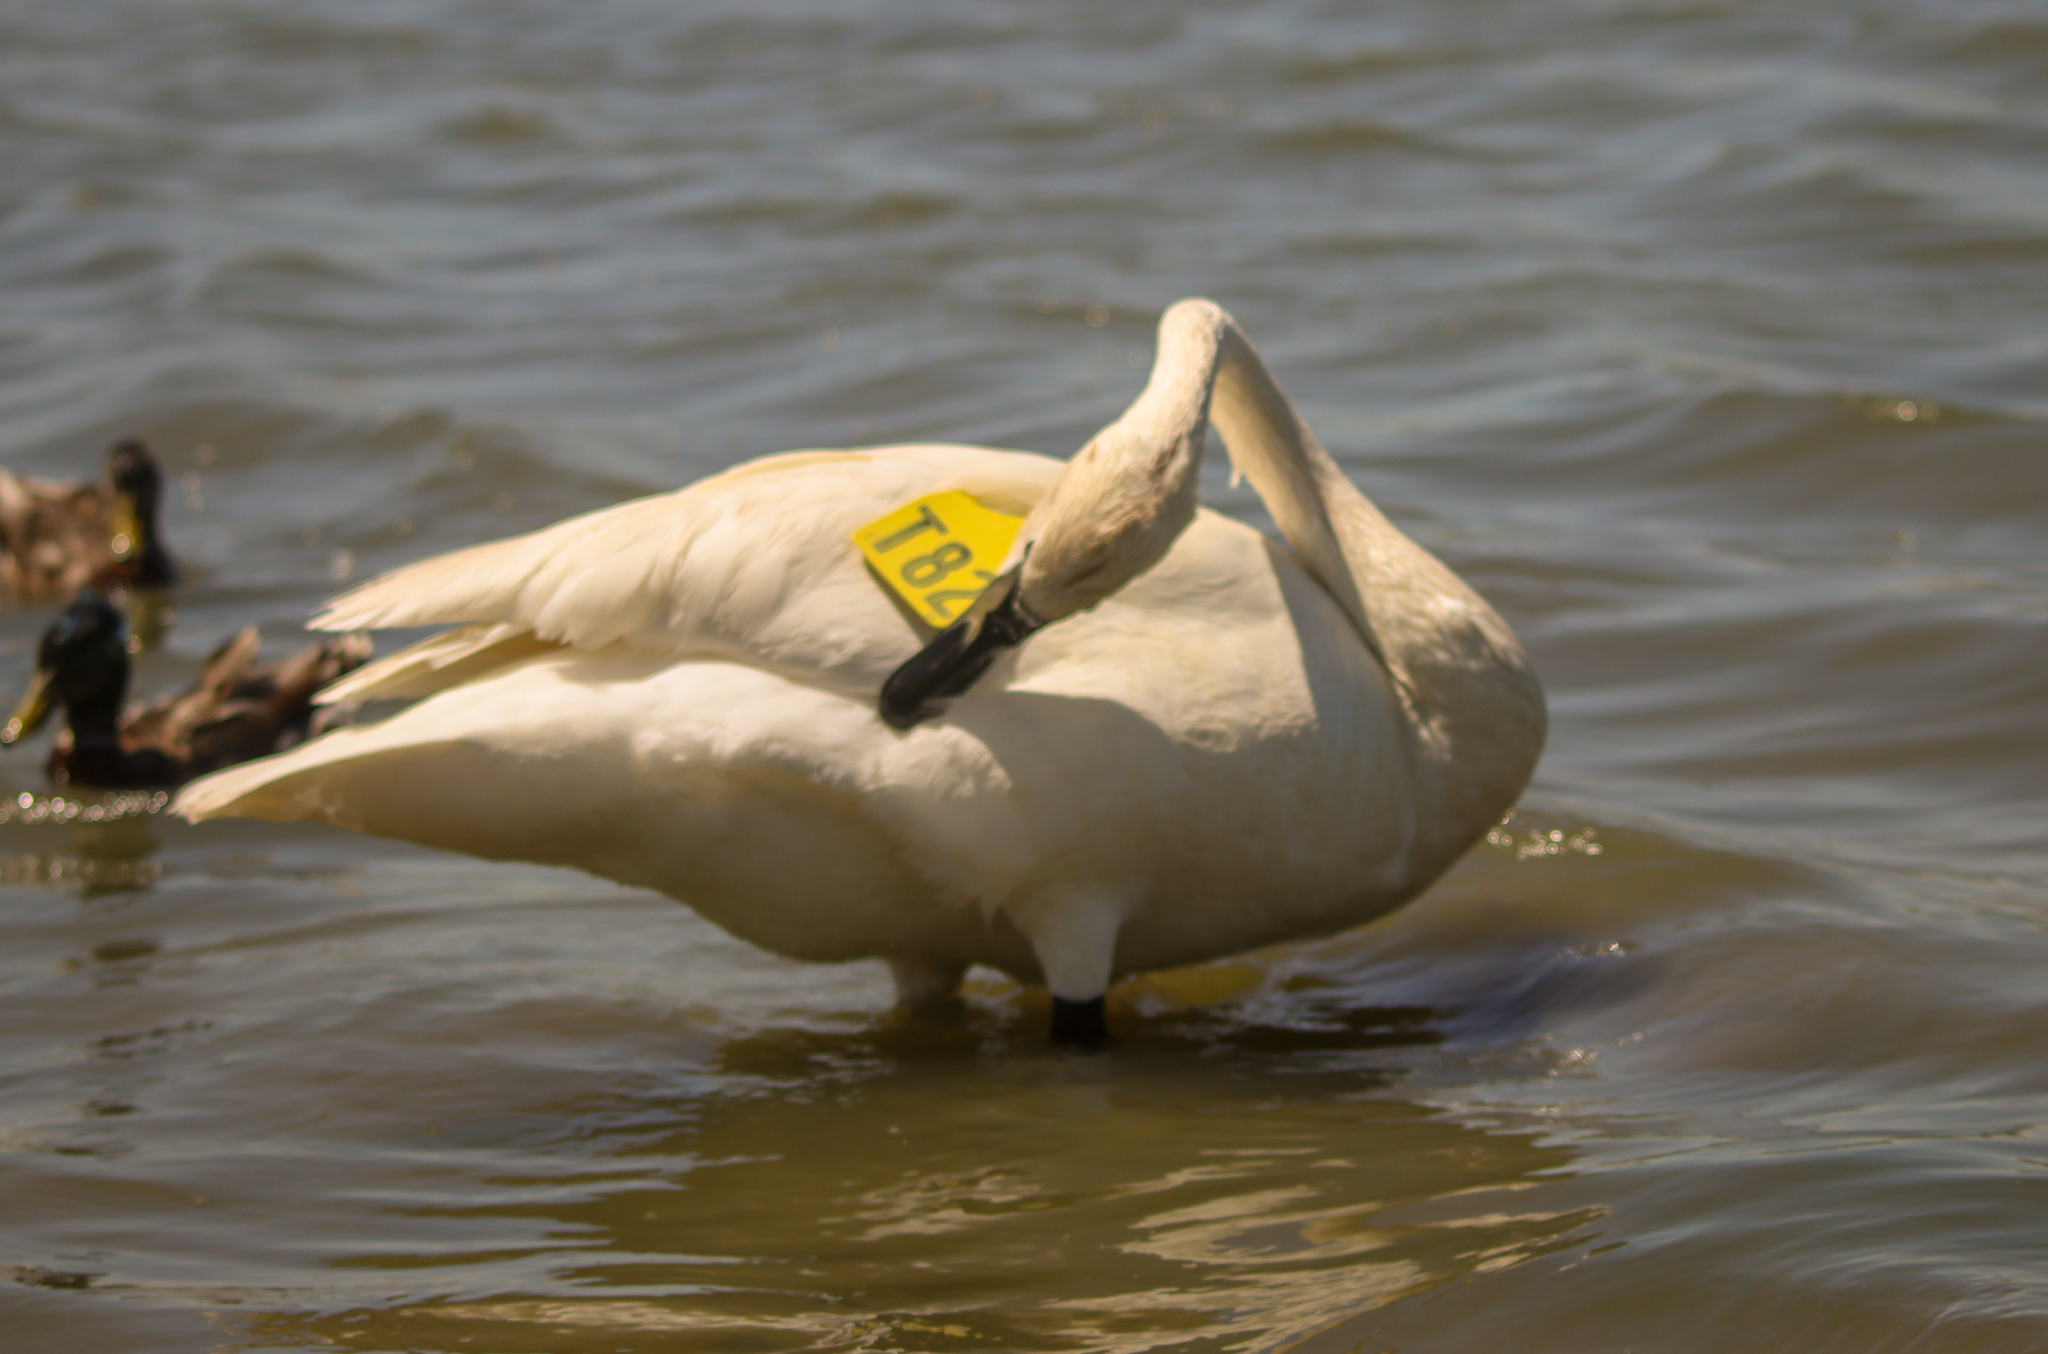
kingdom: Animalia
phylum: Chordata
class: Aves
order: Anseriformes
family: Anatidae
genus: Cygnus
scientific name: Cygnus buccinator
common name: Trumpeter swan
